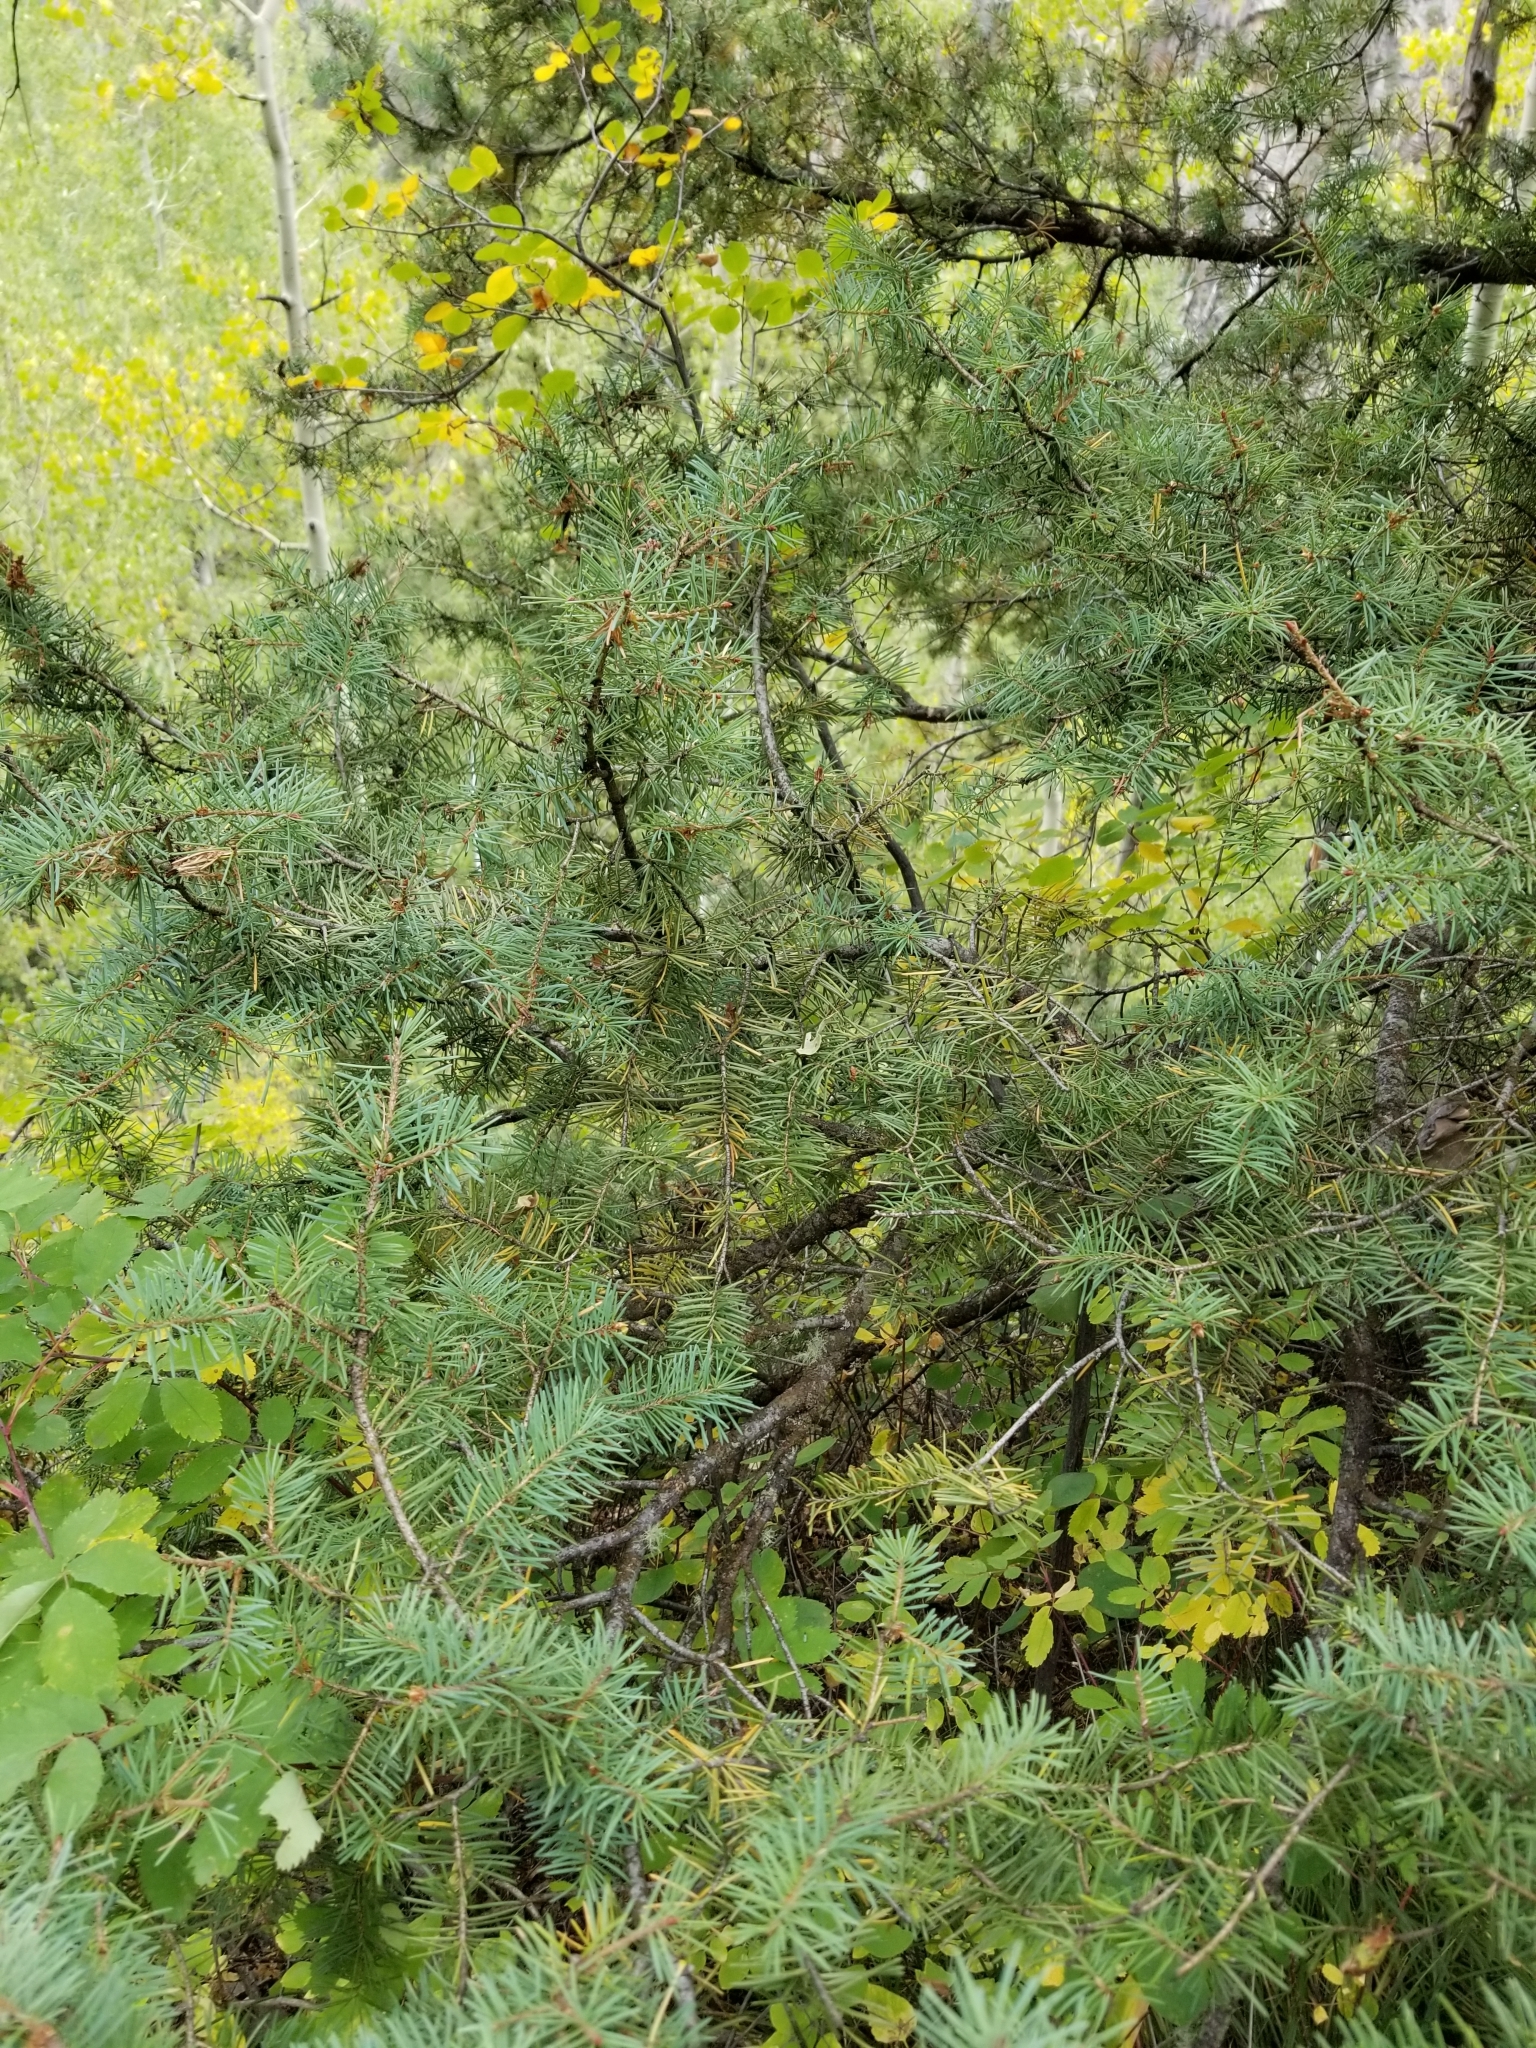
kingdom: Plantae
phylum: Tracheophyta
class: Pinopsida
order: Pinales
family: Pinaceae
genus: Pseudotsuga
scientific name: Pseudotsuga menziesii
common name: Douglas fir
